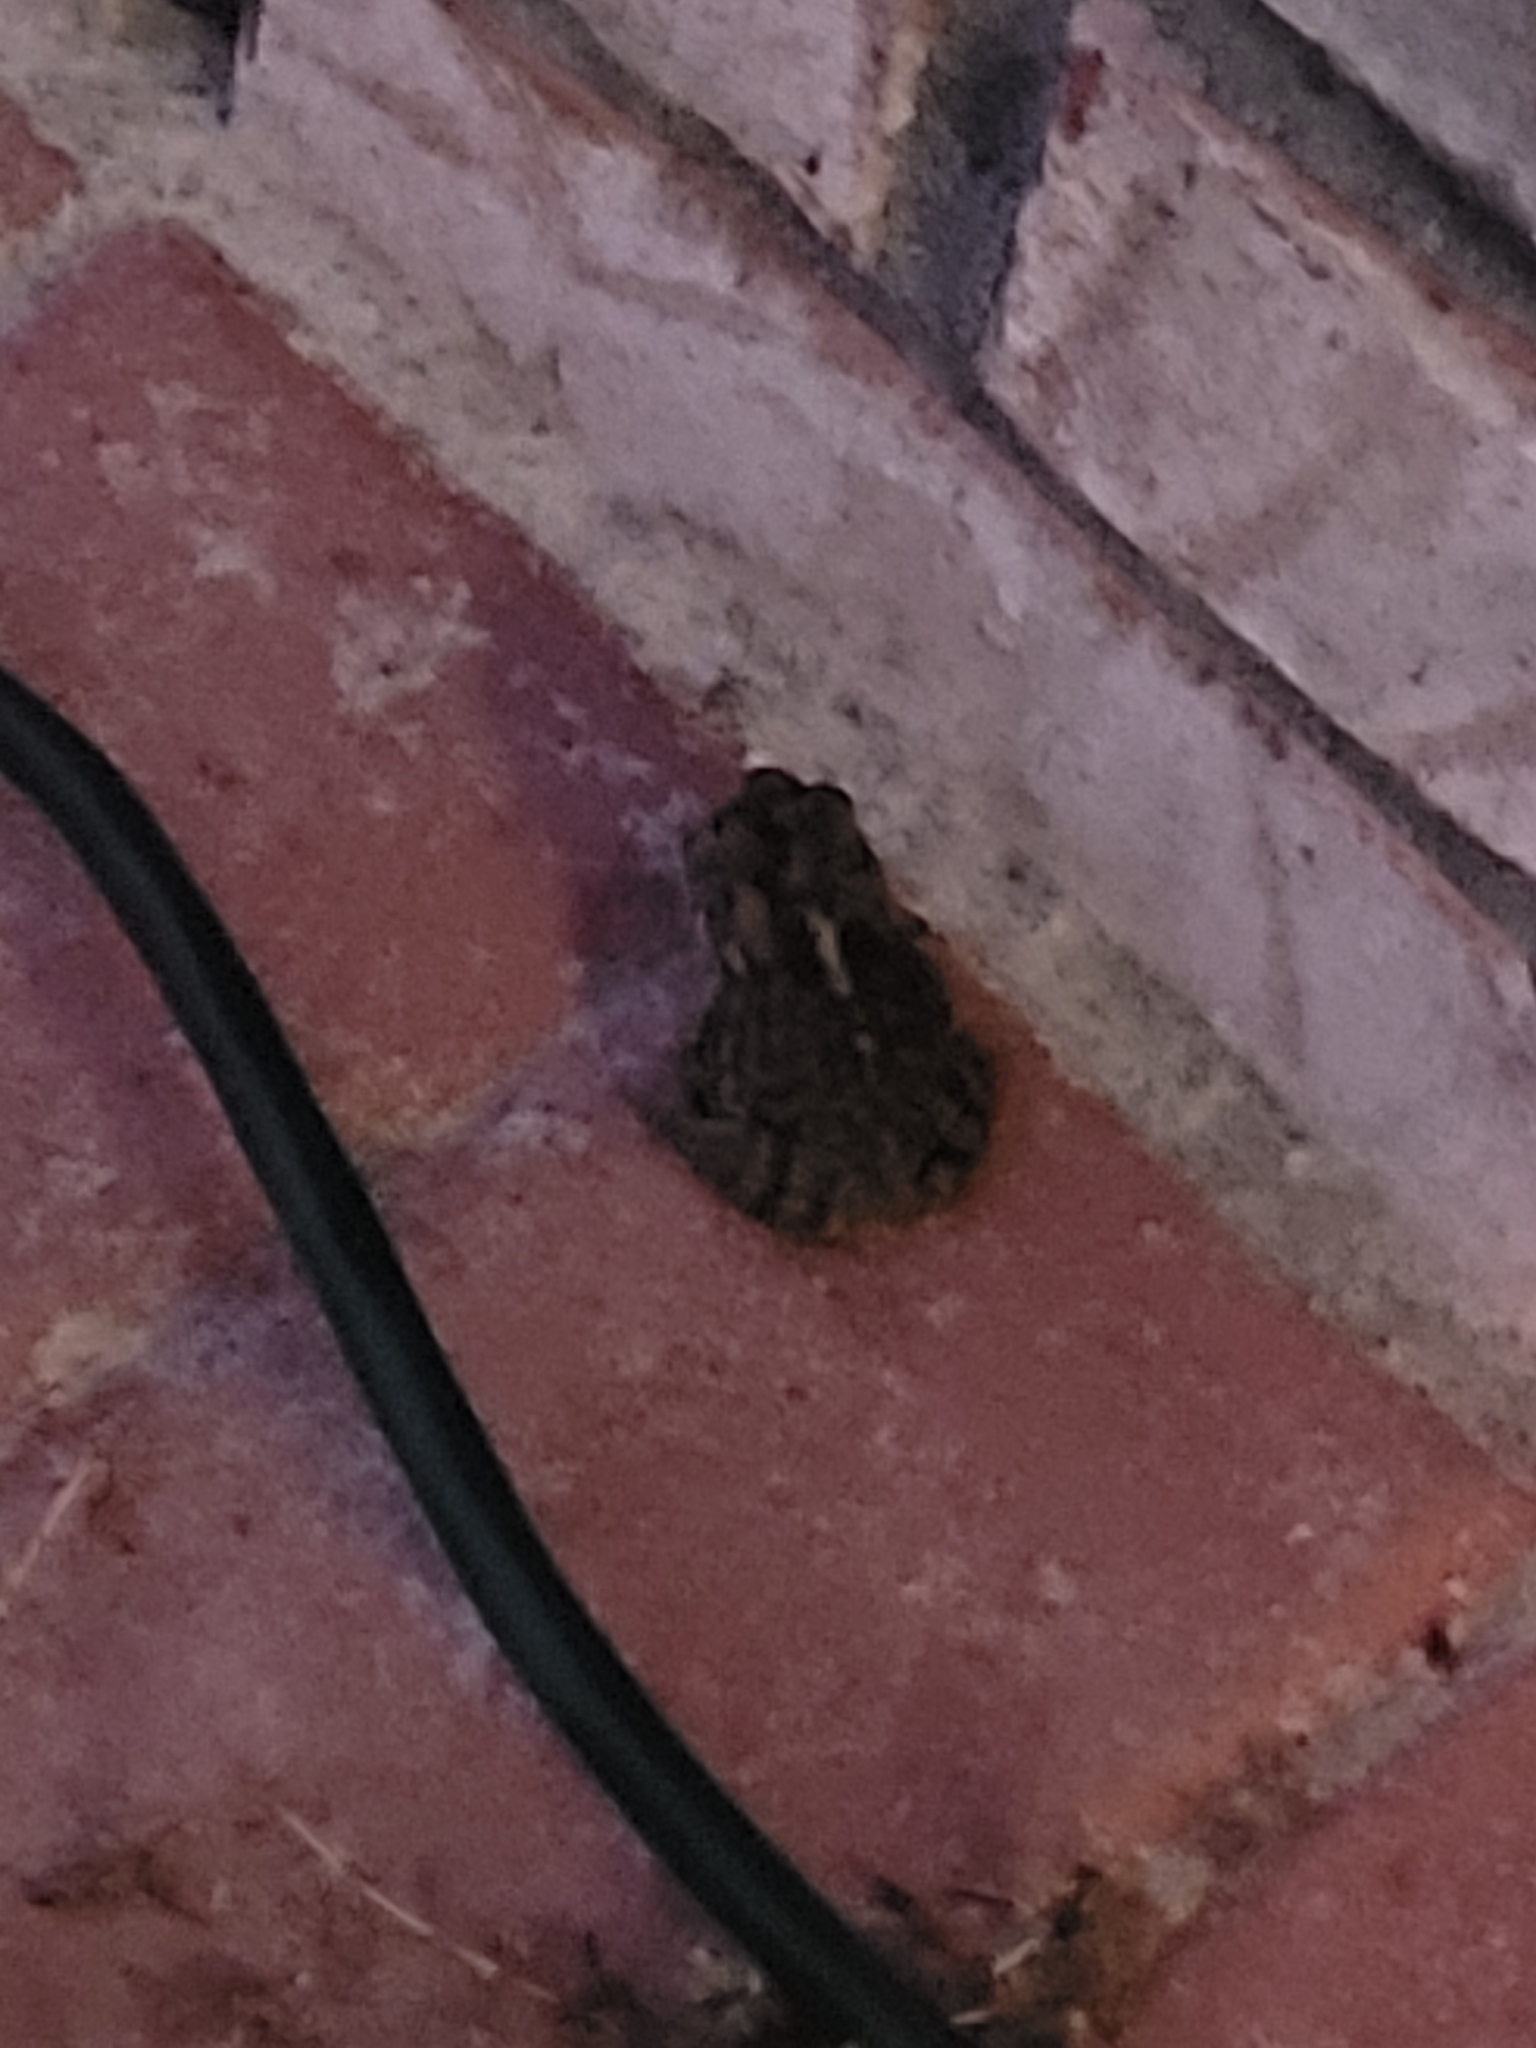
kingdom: Animalia
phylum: Chordata
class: Amphibia
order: Anura
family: Bufonidae
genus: Anaxyrus
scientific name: Anaxyrus terrestris
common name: Southern toad
